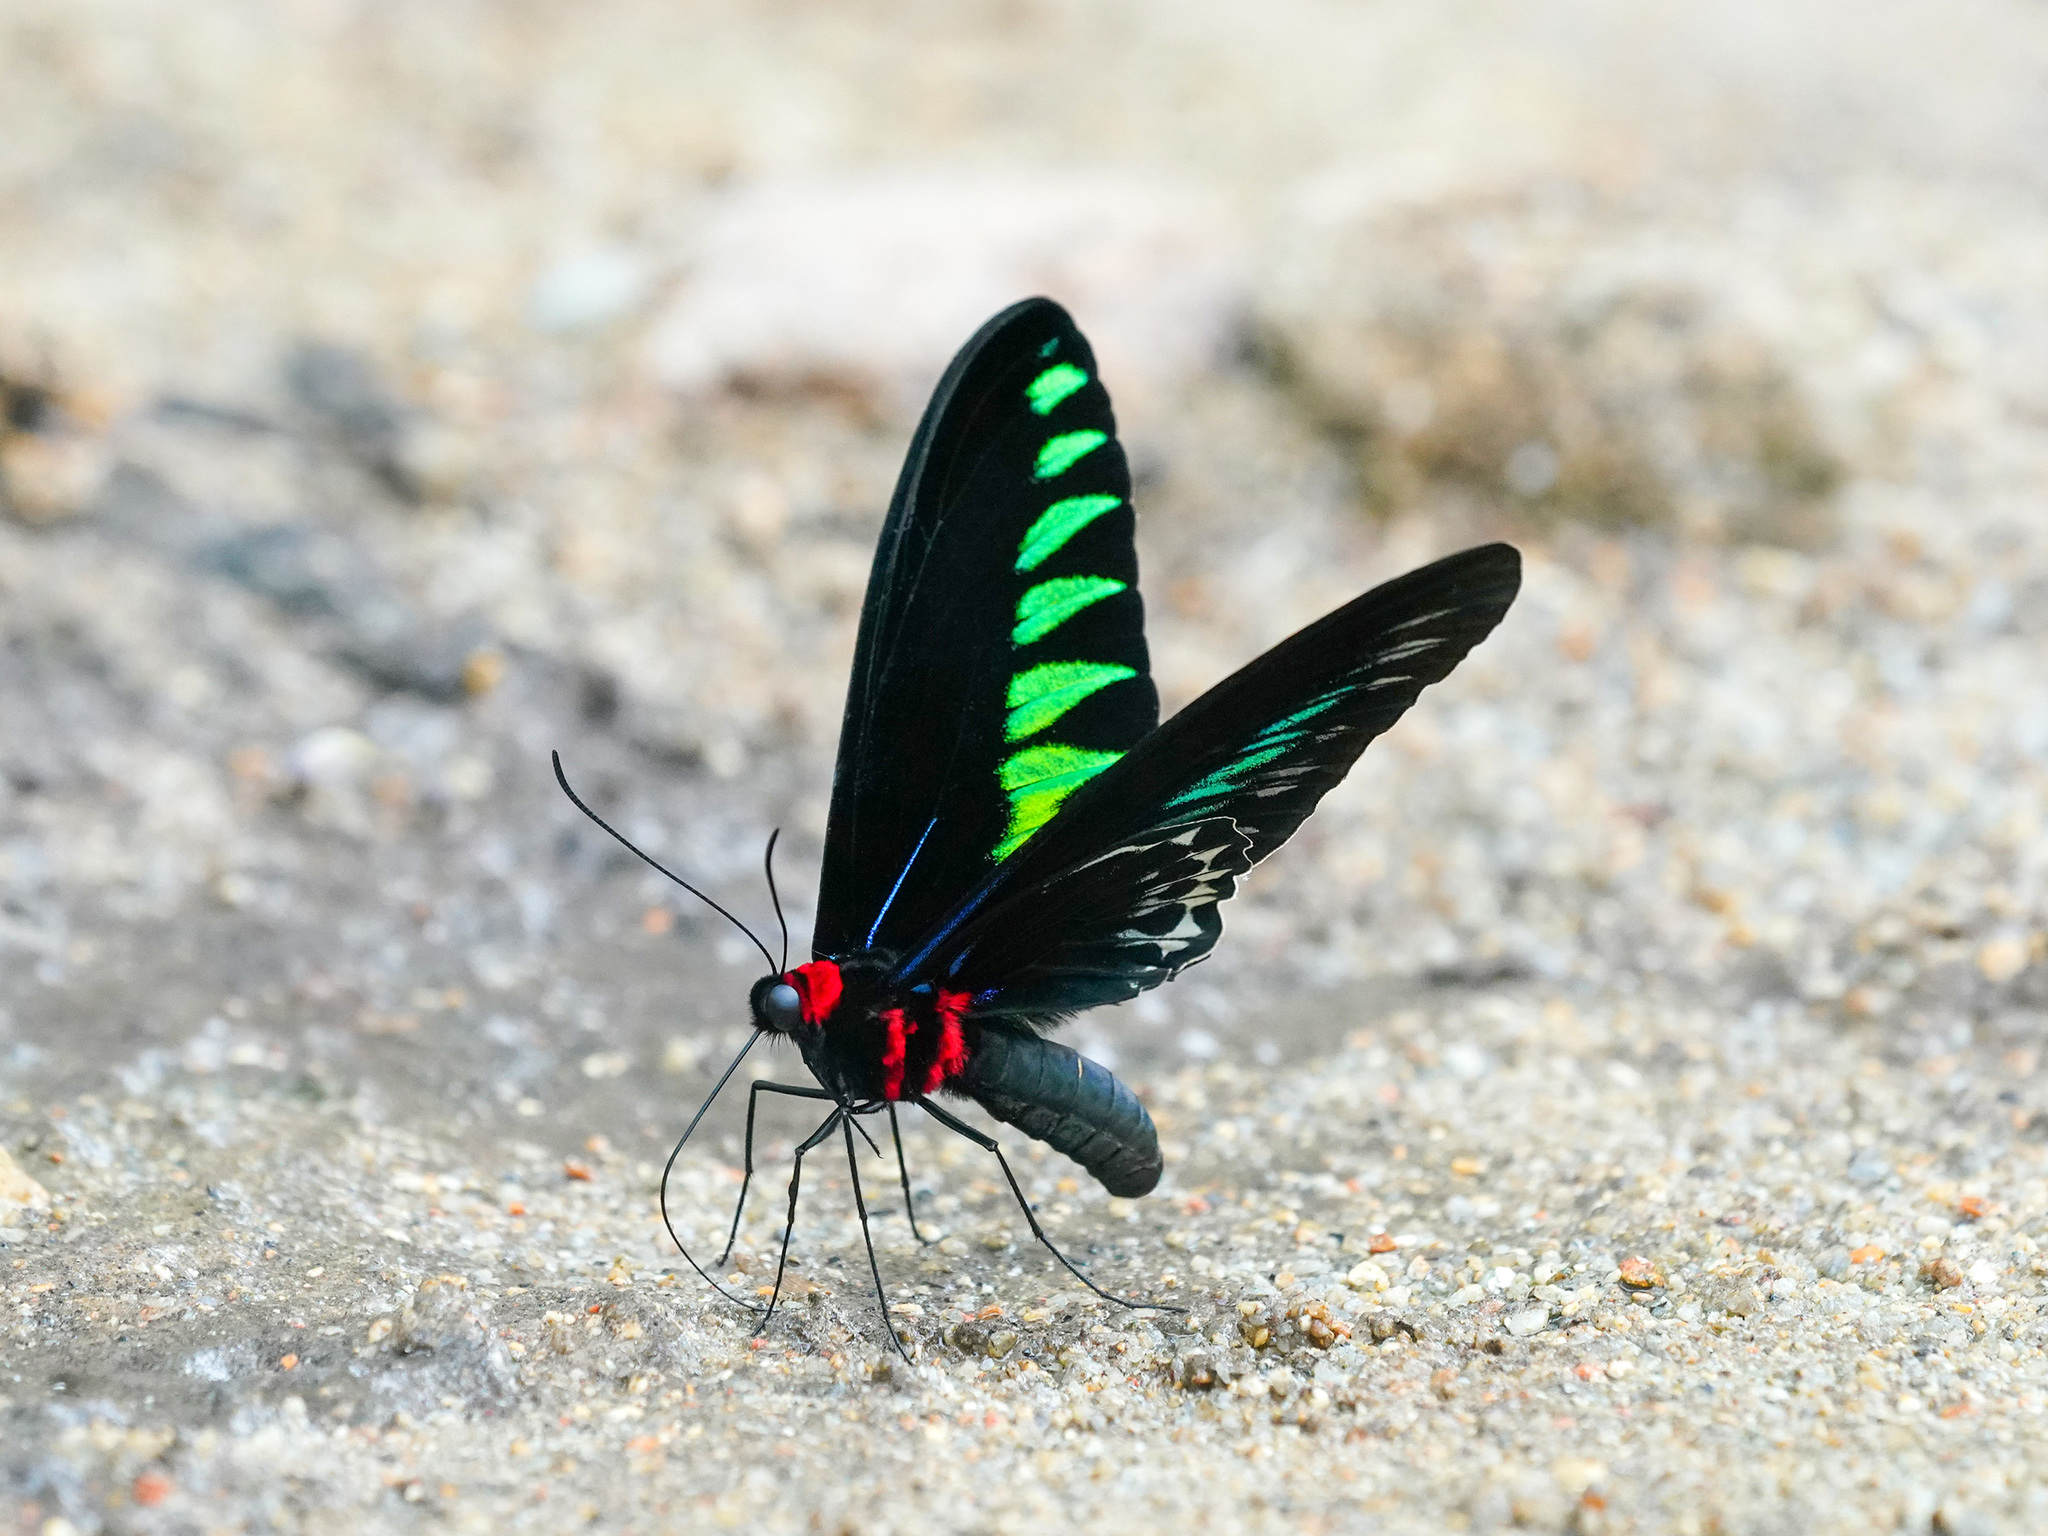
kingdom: Animalia
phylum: Arthropoda
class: Insecta
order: Lepidoptera
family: Papilionidae
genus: Trogonoptera
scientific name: Trogonoptera brookiana
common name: Raja brooke's birdwing
